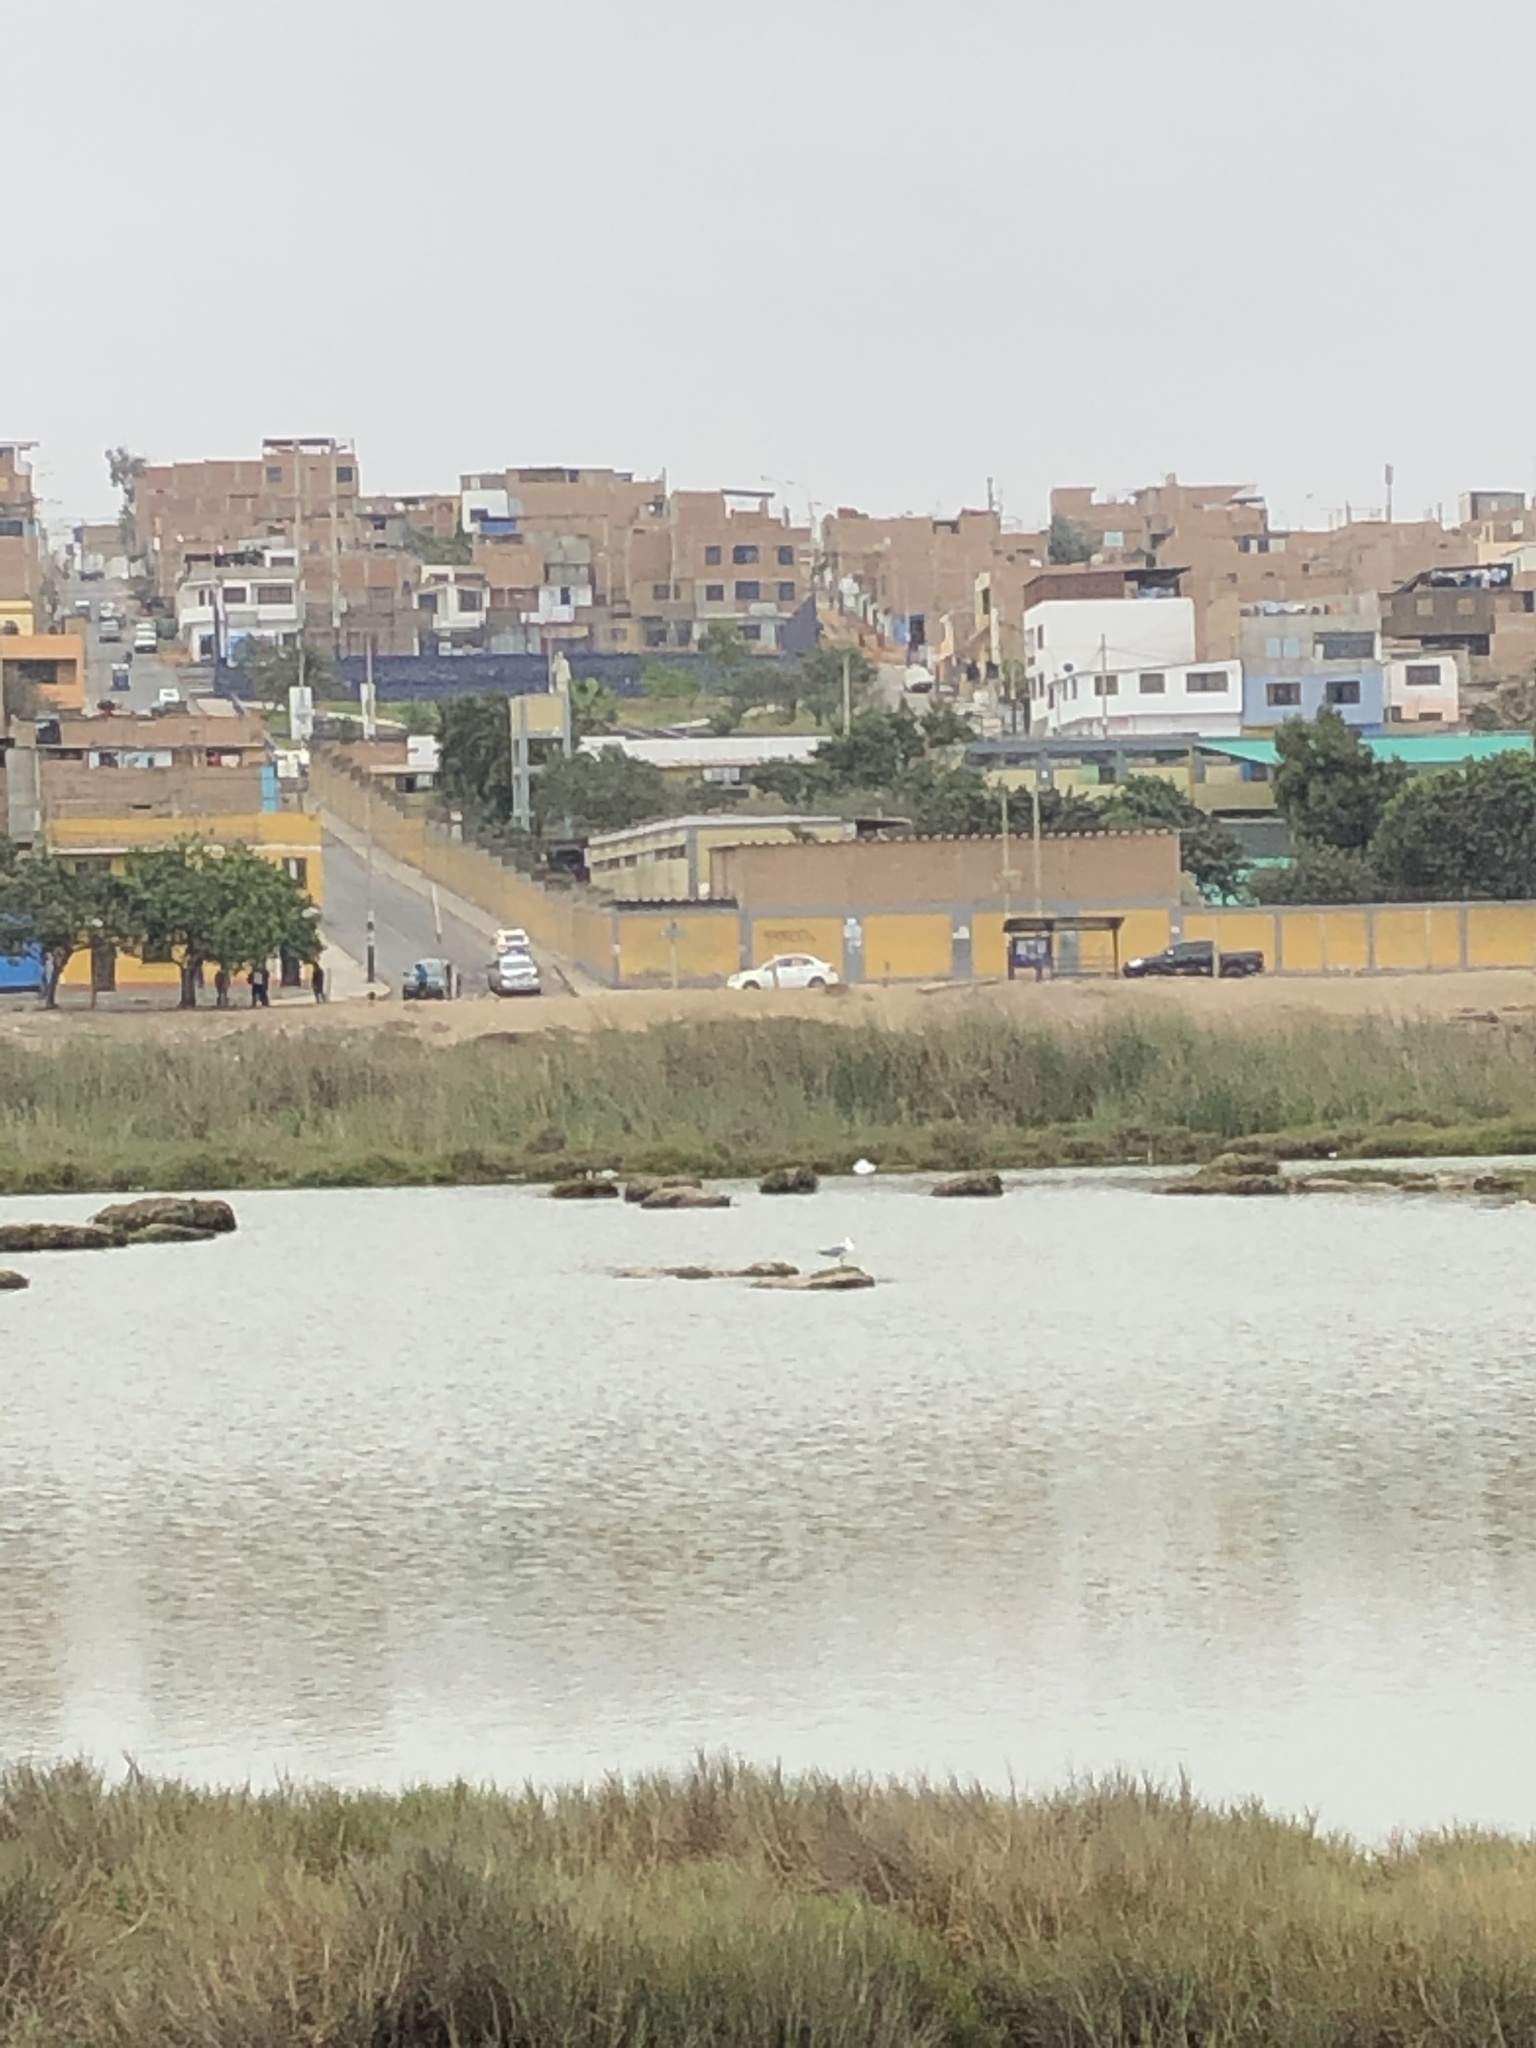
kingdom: Animalia
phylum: Chordata
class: Aves
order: Charadriiformes
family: Laridae
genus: Chroicocephalus
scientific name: Chroicocephalus cirrocephalus
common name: Grey-headed gull
